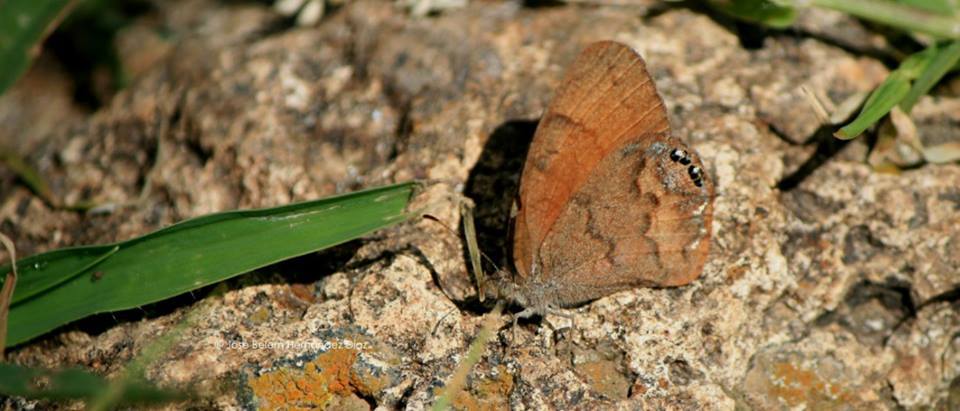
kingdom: Animalia
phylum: Arthropoda
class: Insecta
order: Lepidoptera
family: Nymphalidae
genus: Euptychia
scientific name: Euptychia Cyllopsis pertepida
